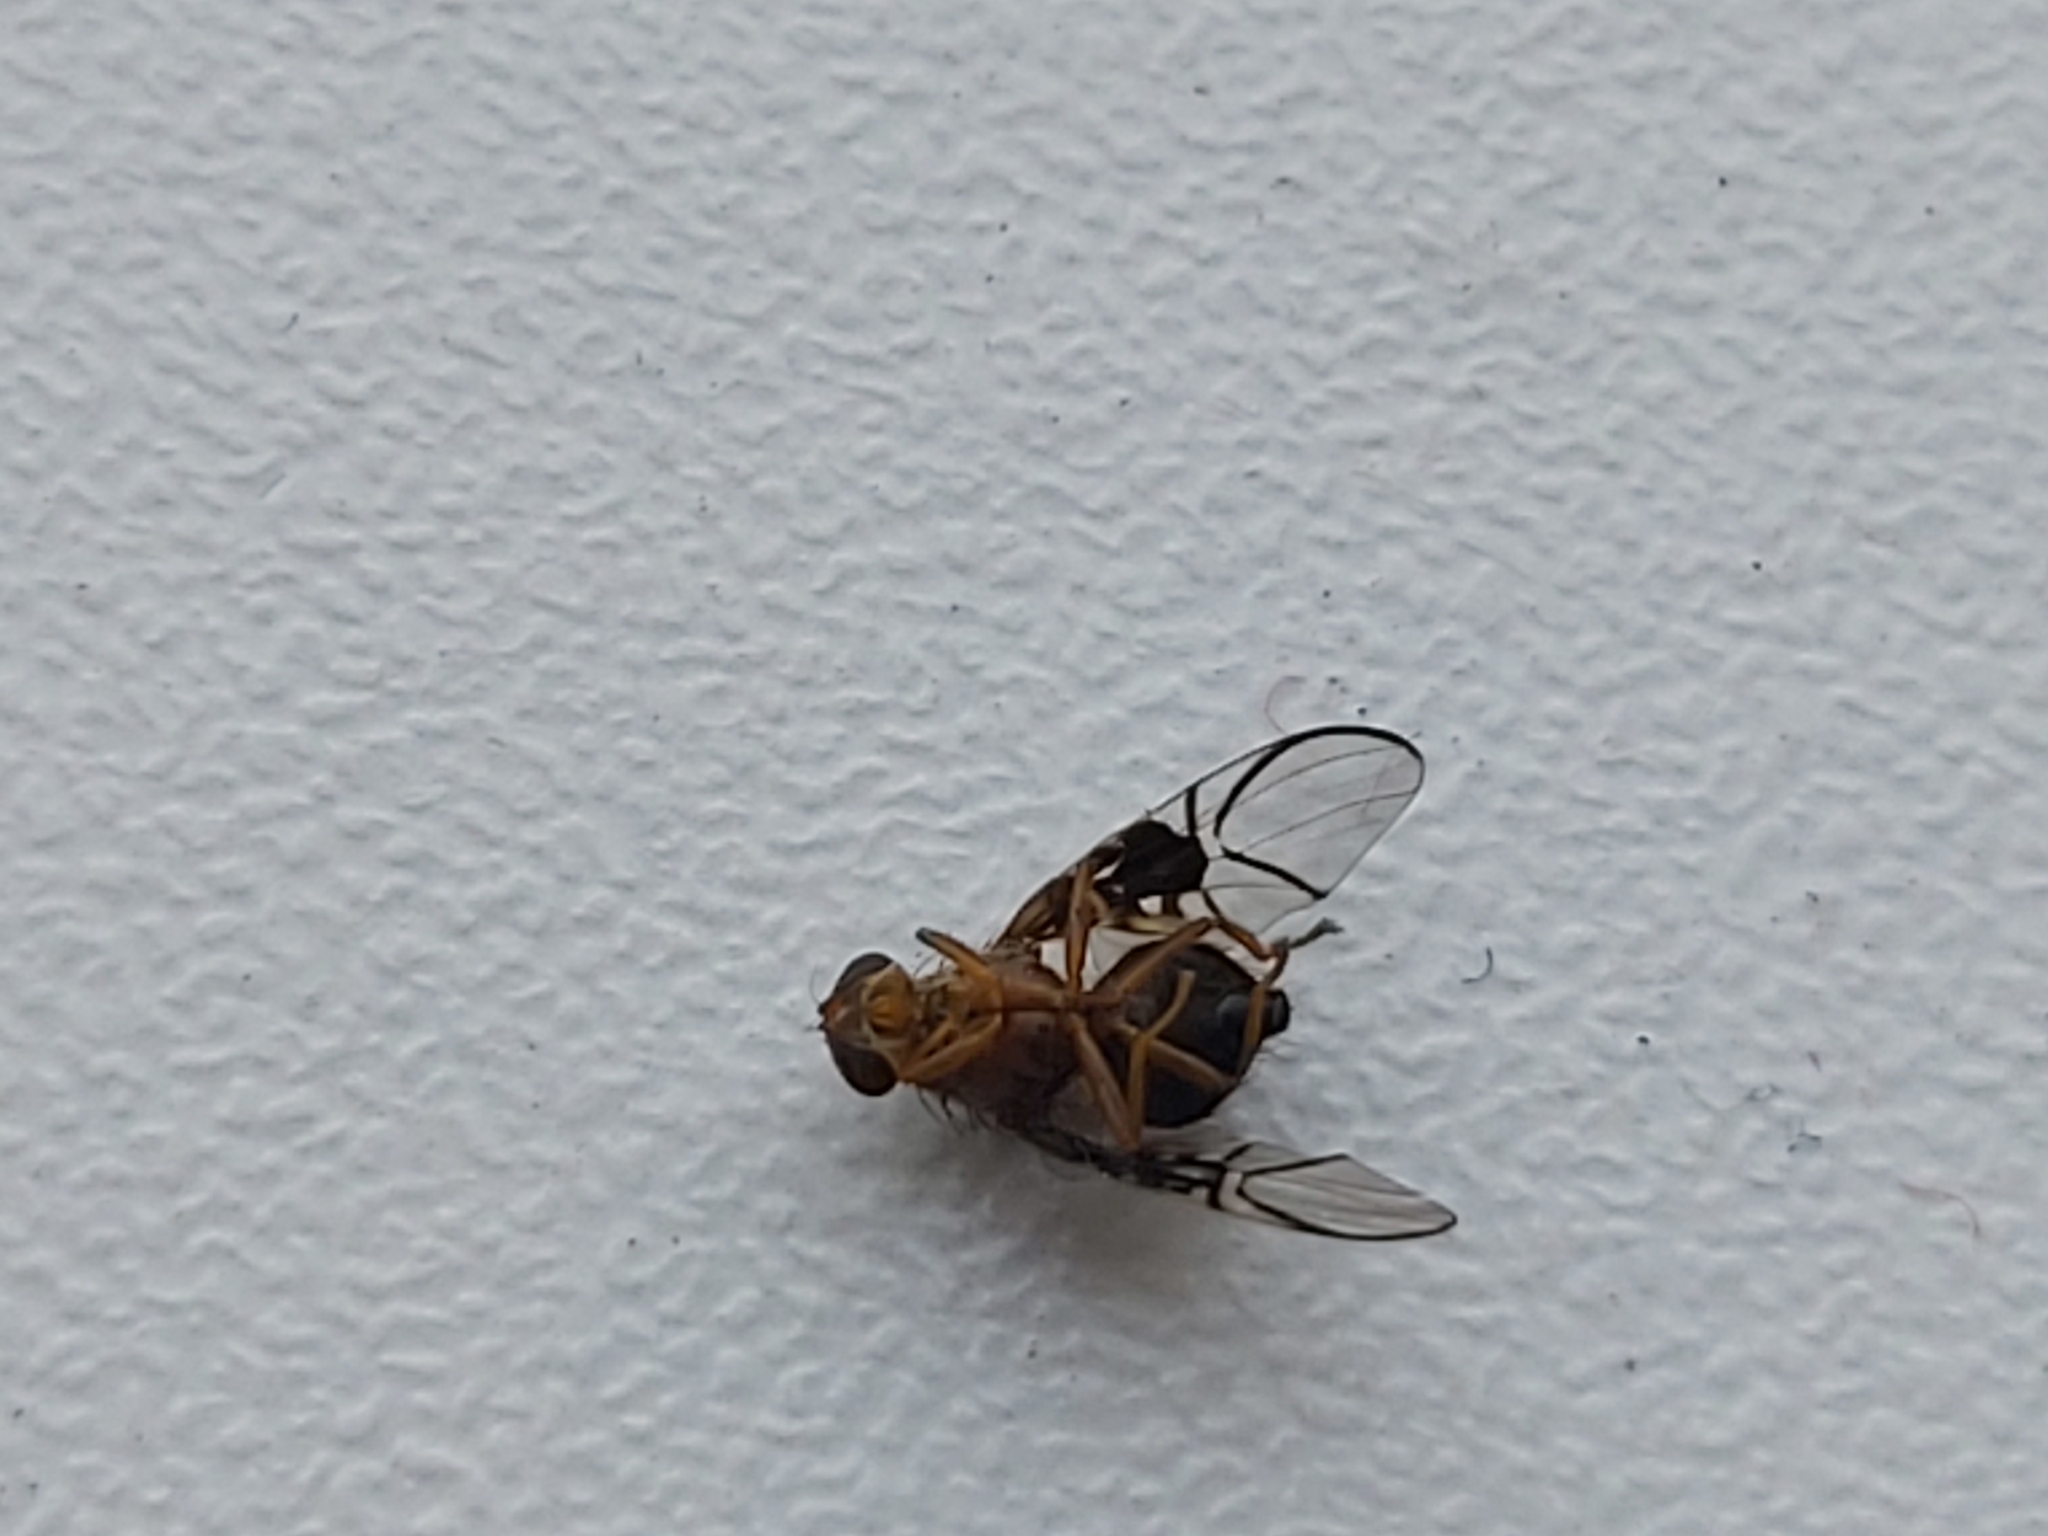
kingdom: Animalia
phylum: Arthropoda
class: Insecta
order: Diptera
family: Tephritidae
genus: Anomoia
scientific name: Anomoia purmunda
